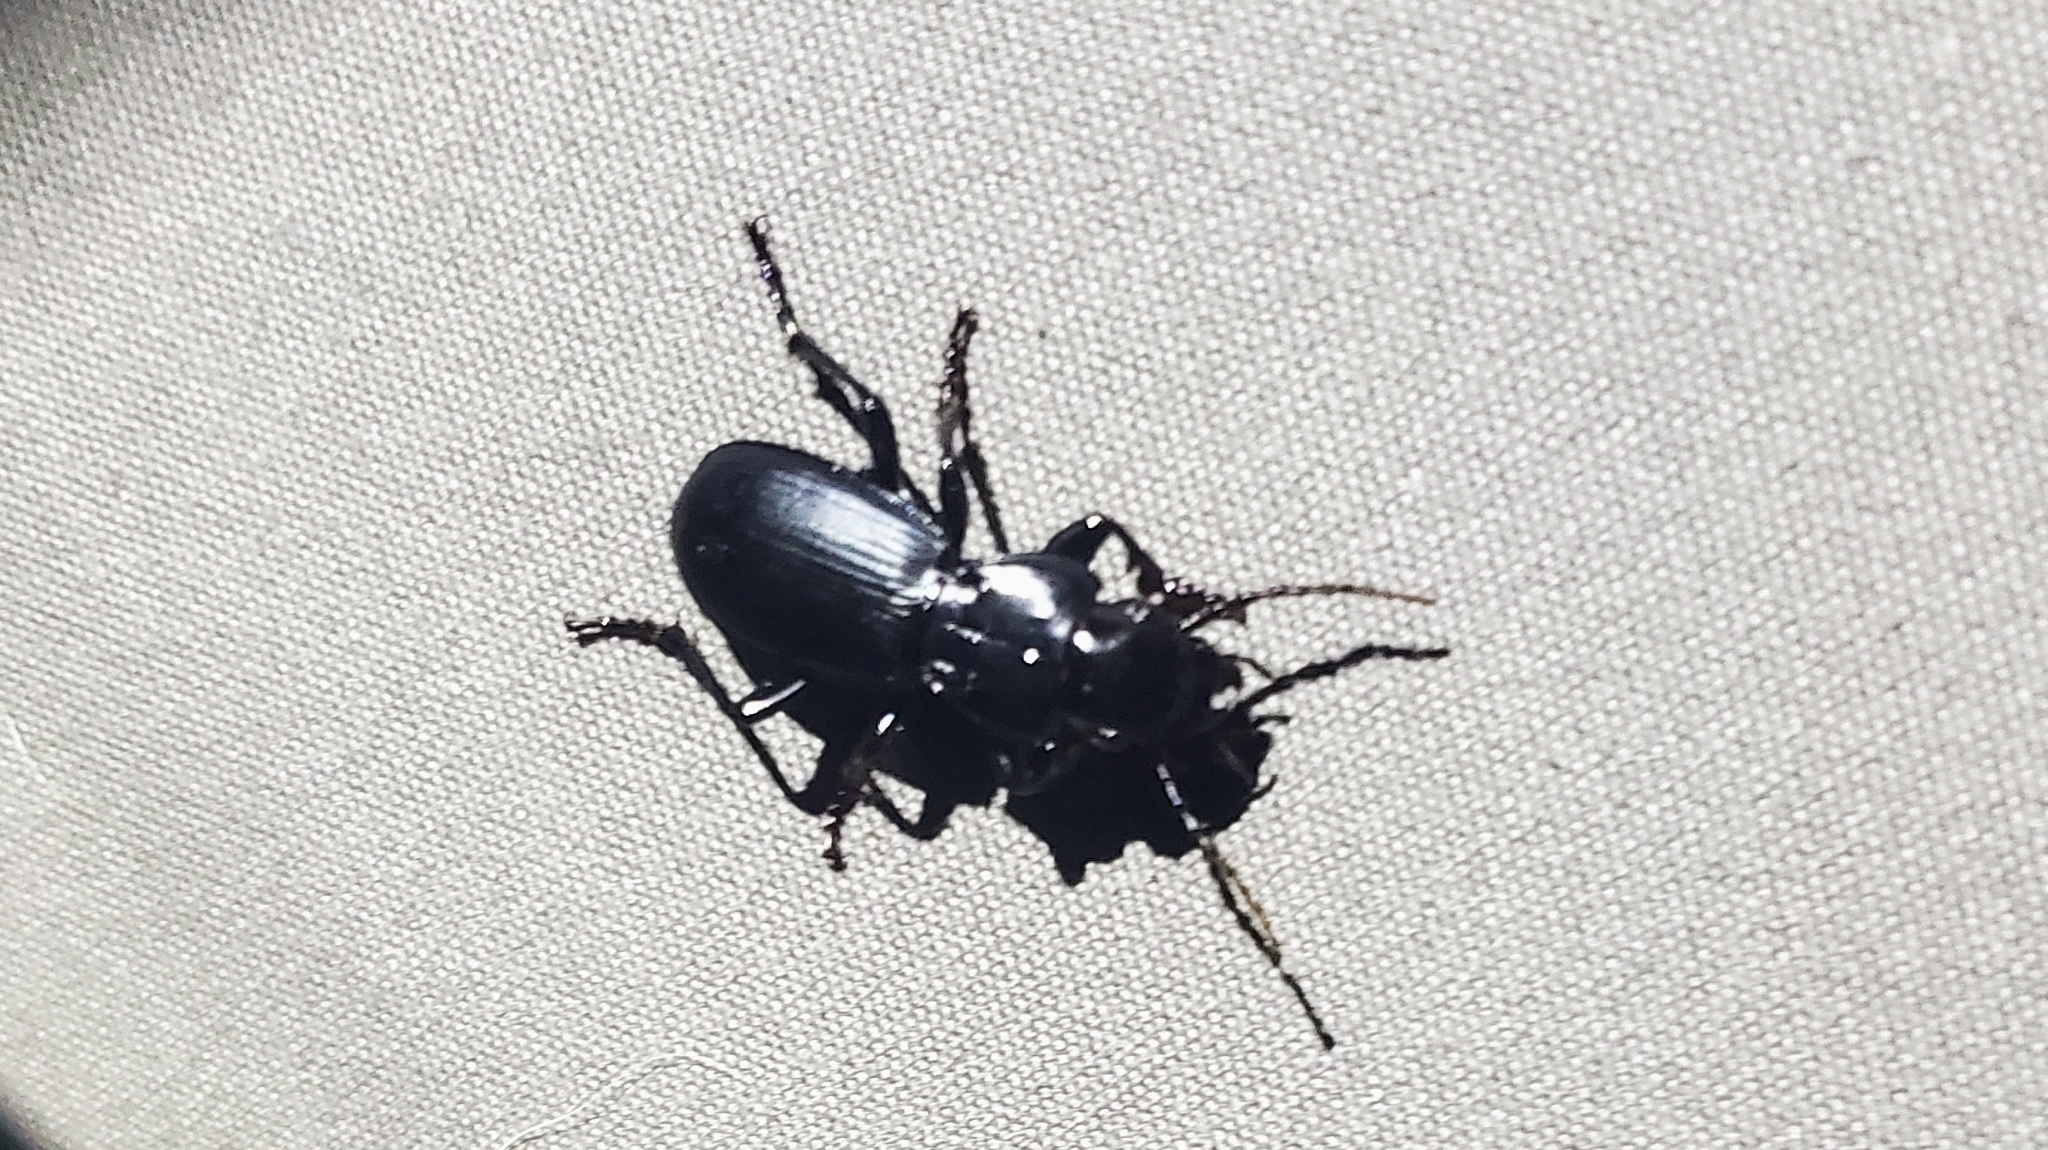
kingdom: Animalia
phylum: Arthropoda
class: Insecta
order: Coleoptera
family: Carabidae
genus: Pterostichus
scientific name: Pterostichus lama
